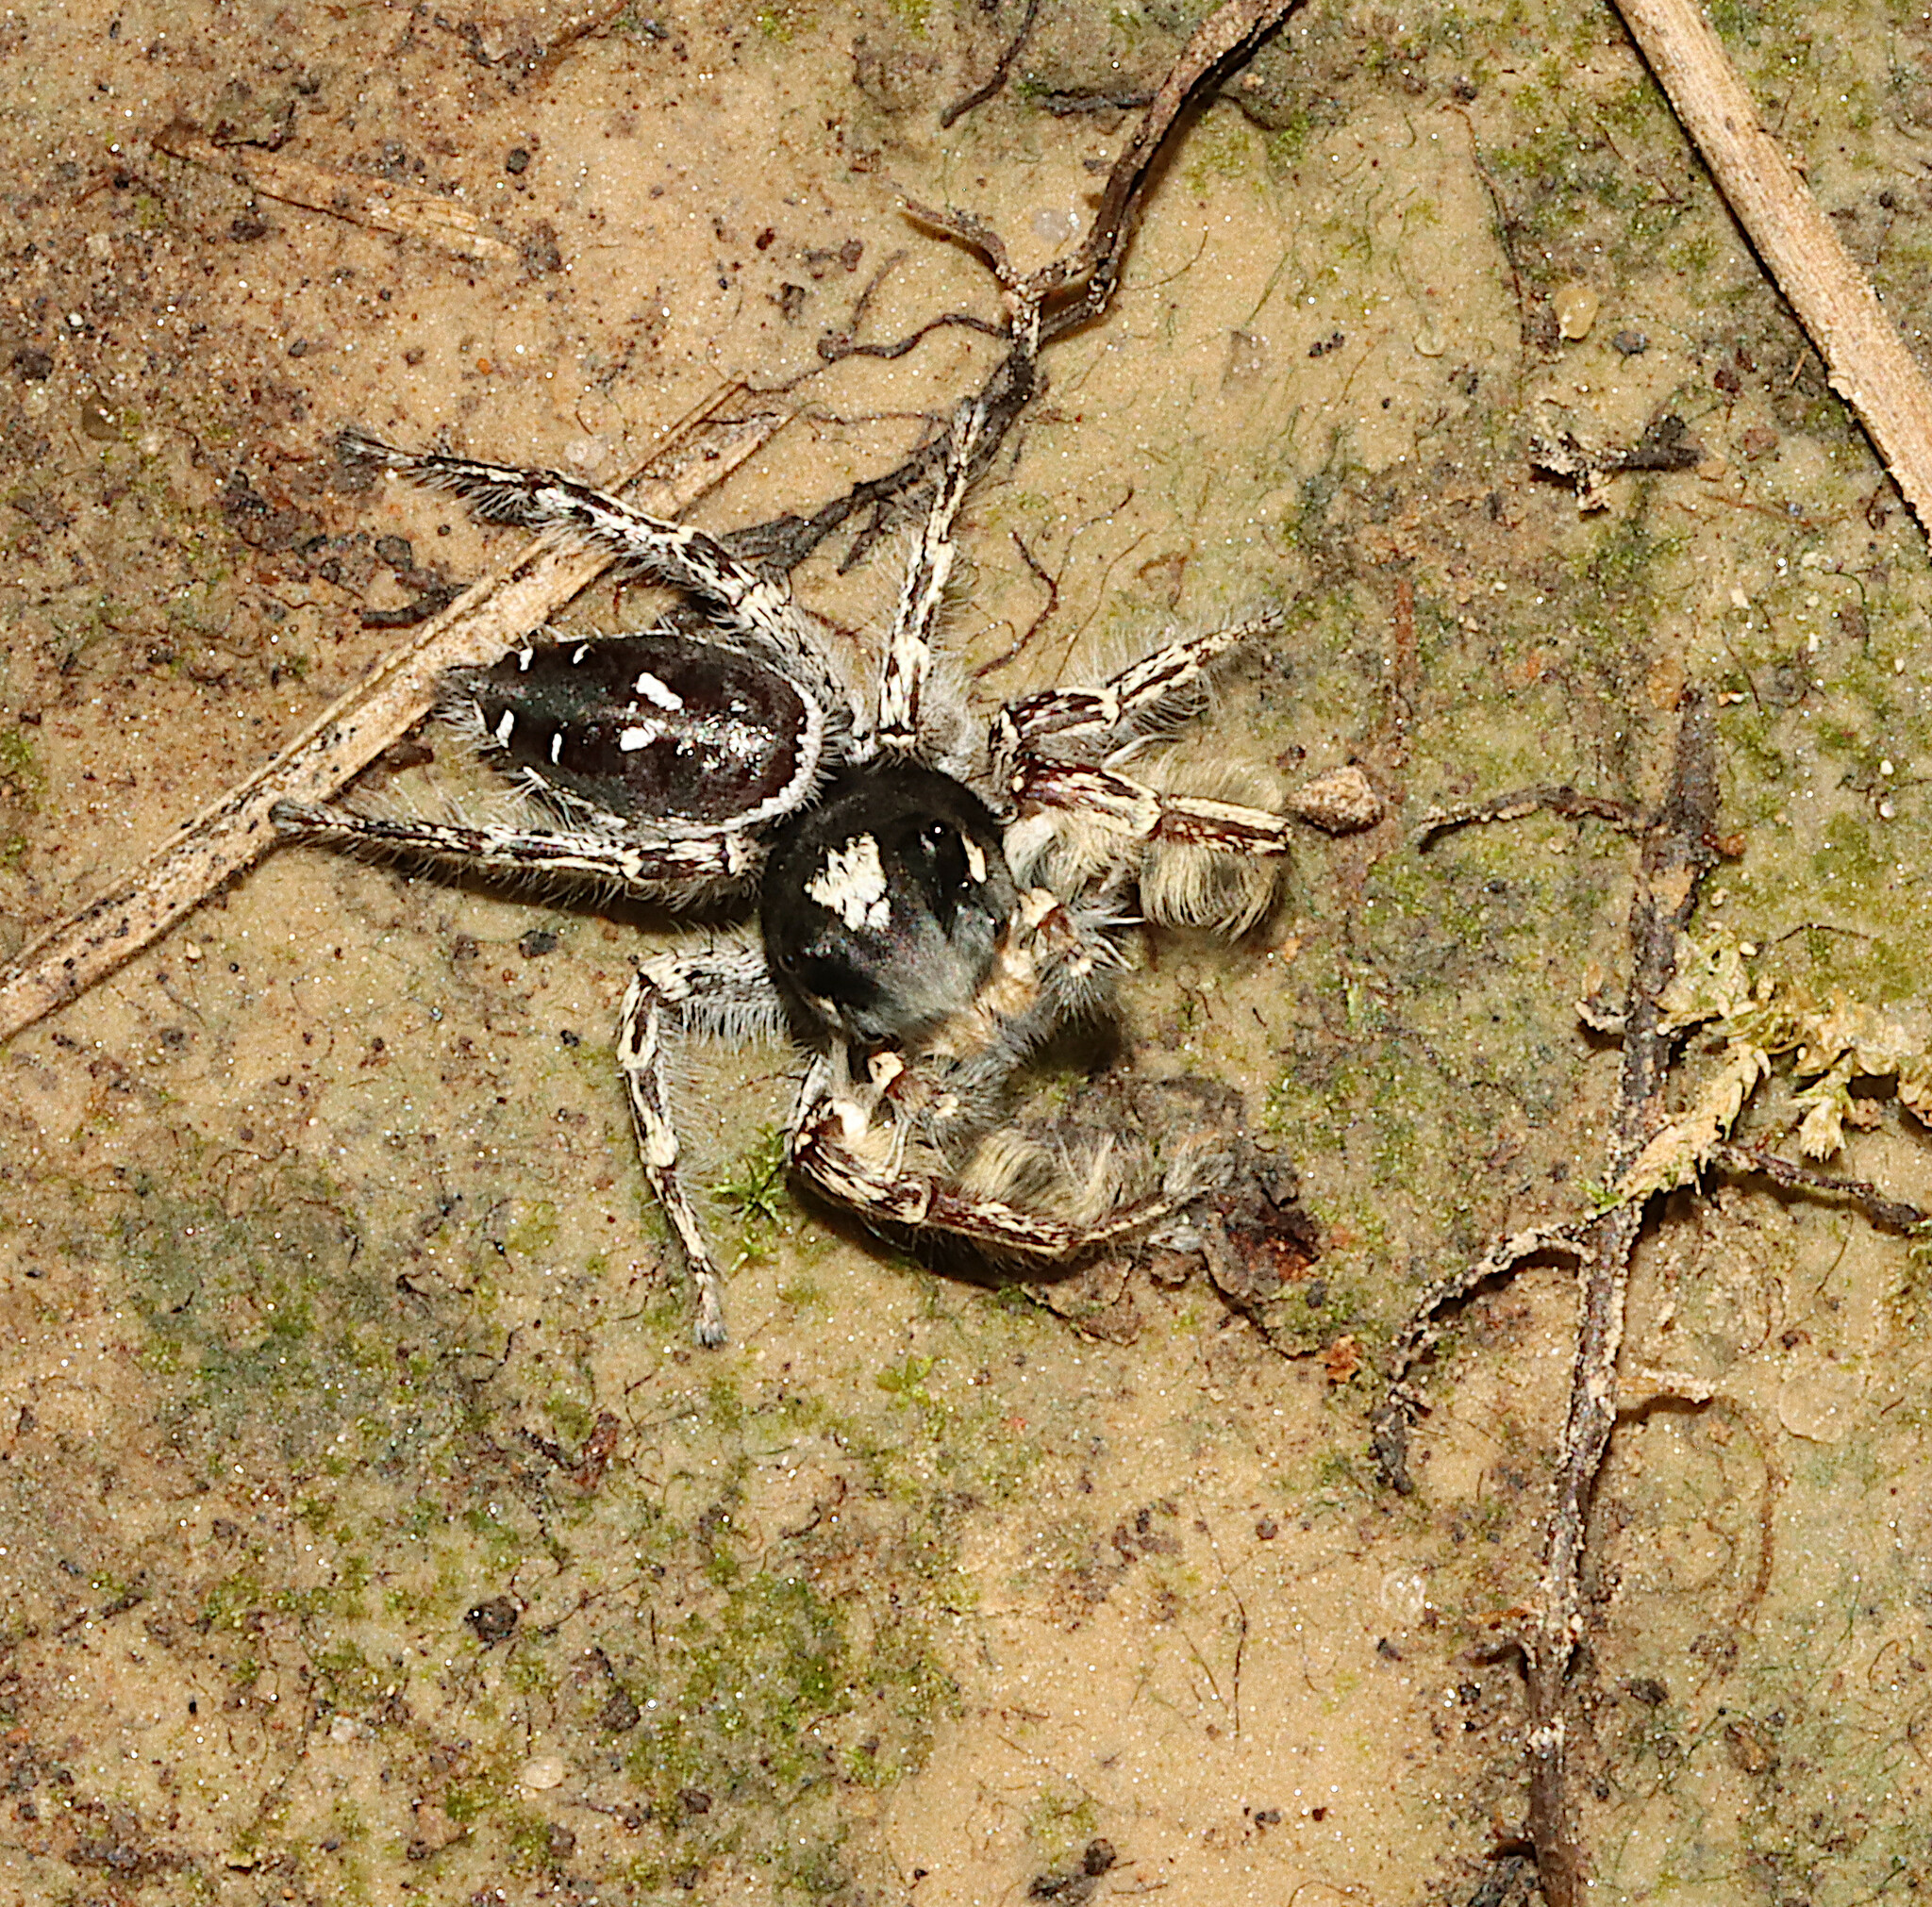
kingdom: Animalia
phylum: Arthropoda
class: Arachnida
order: Araneae
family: Salticidae
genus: Phidippus
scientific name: Phidippus putnami
